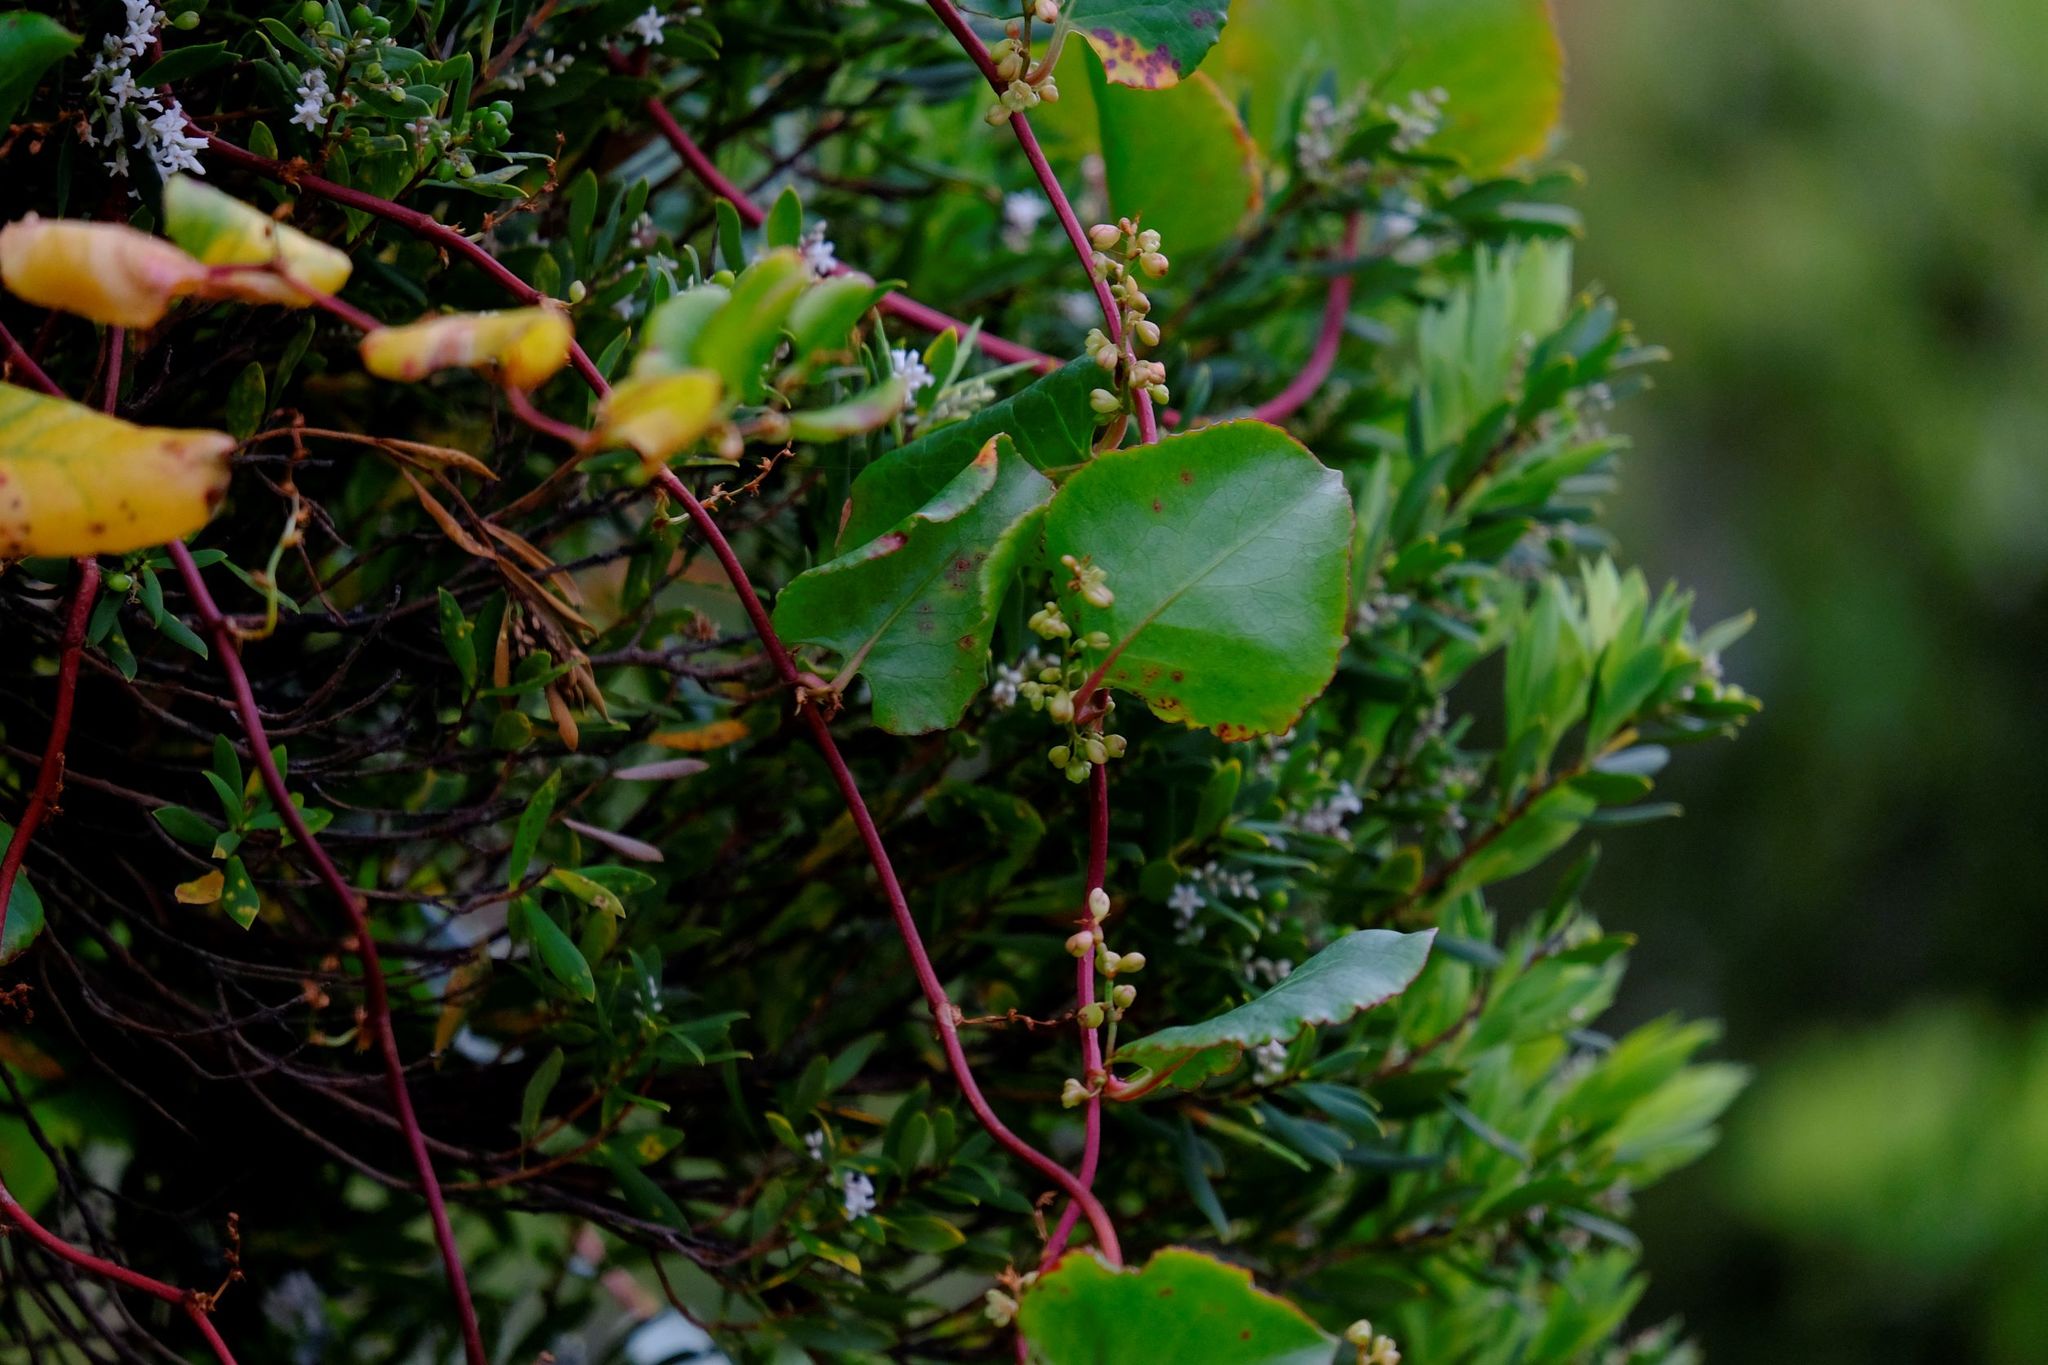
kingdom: Plantae
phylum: Tracheophyta
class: Magnoliopsida
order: Caryophyllales
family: Polygonaceae
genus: Muehlenbeckia
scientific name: Muehlenbeckia adpressa
